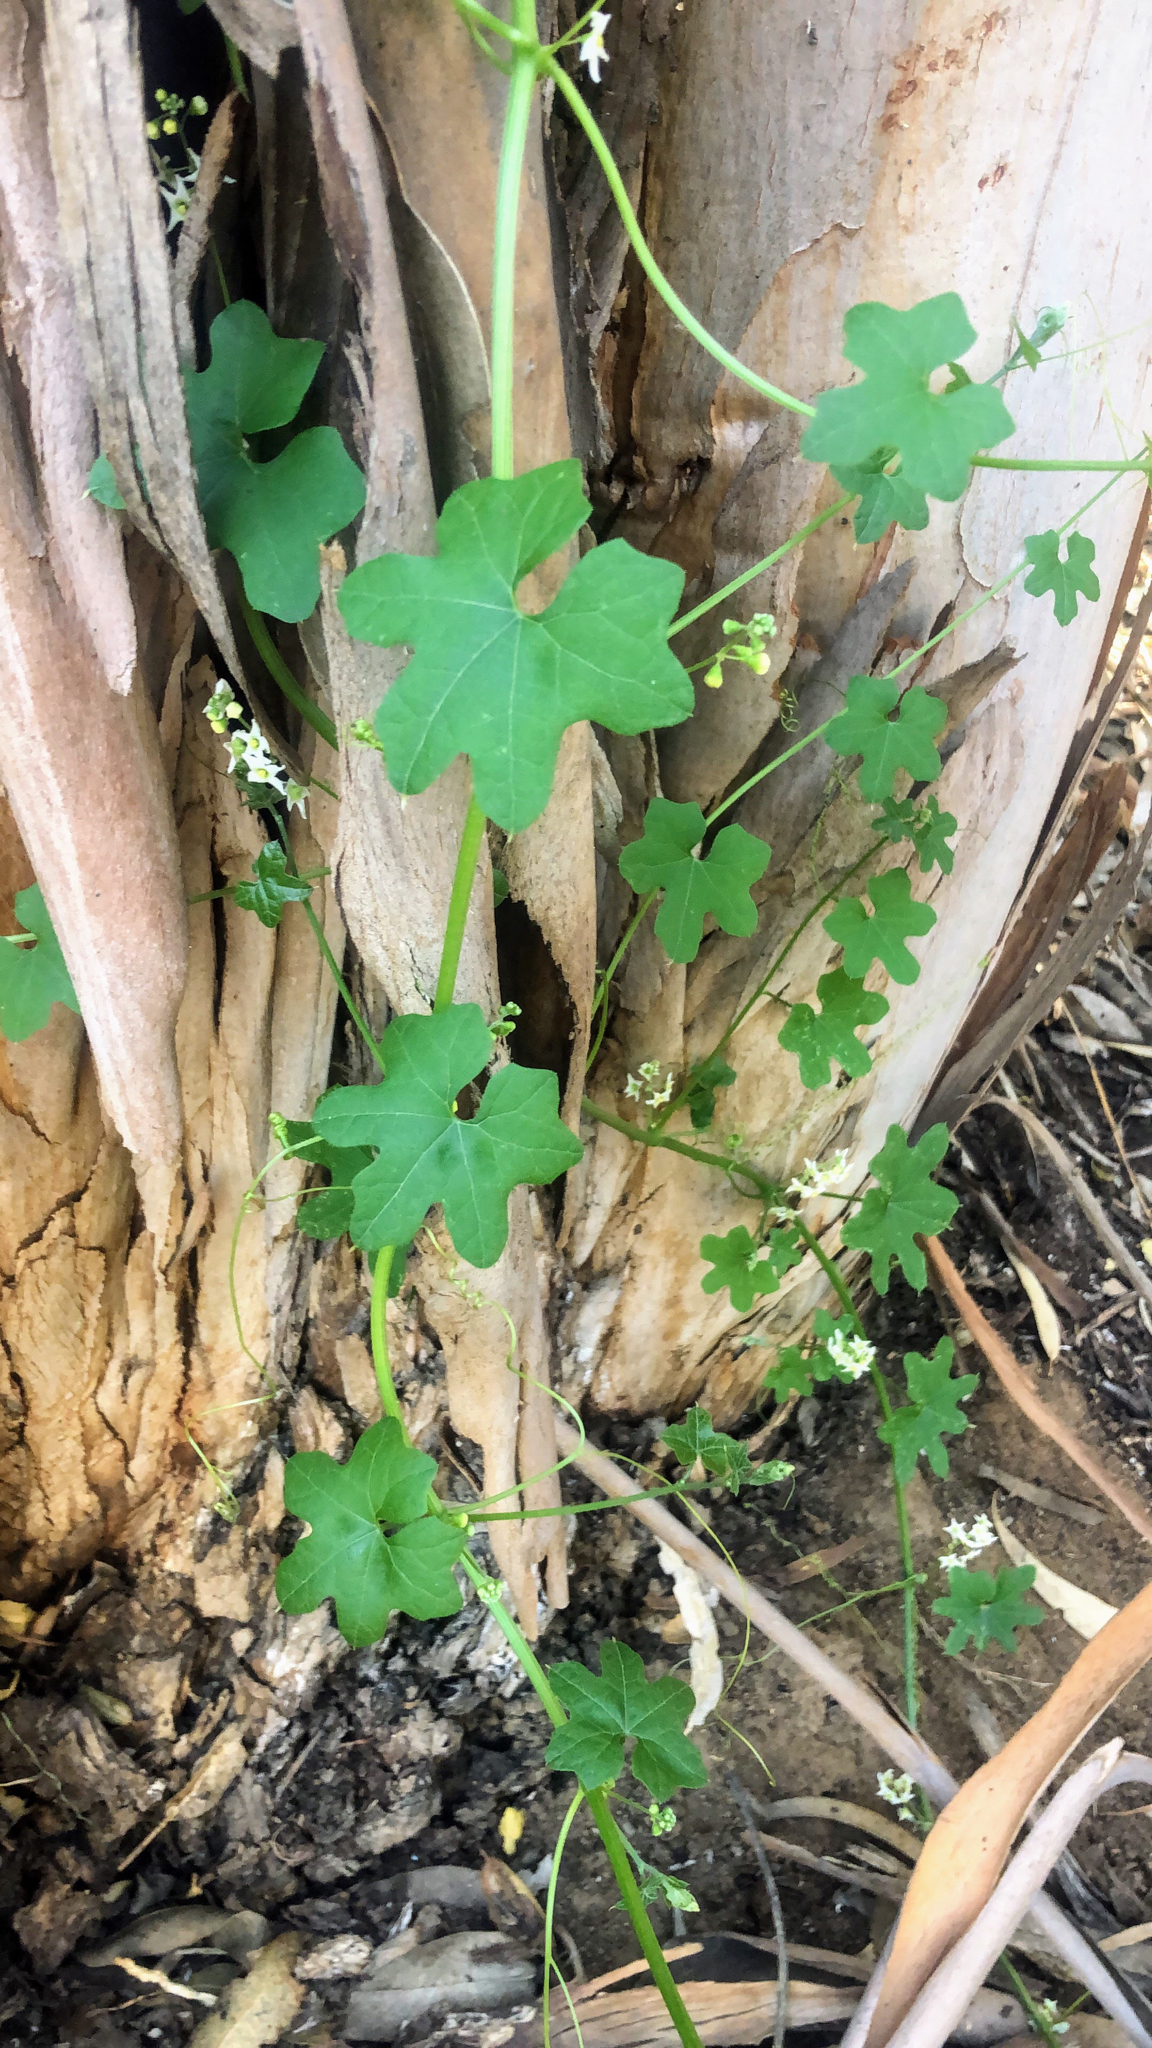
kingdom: Plantae
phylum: Tracheophyta
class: Magnoliopsida
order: Cucurbitales
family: Cucurbitaceae
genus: Marah
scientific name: Marah macrocarpa
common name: Cucamonga manroot
